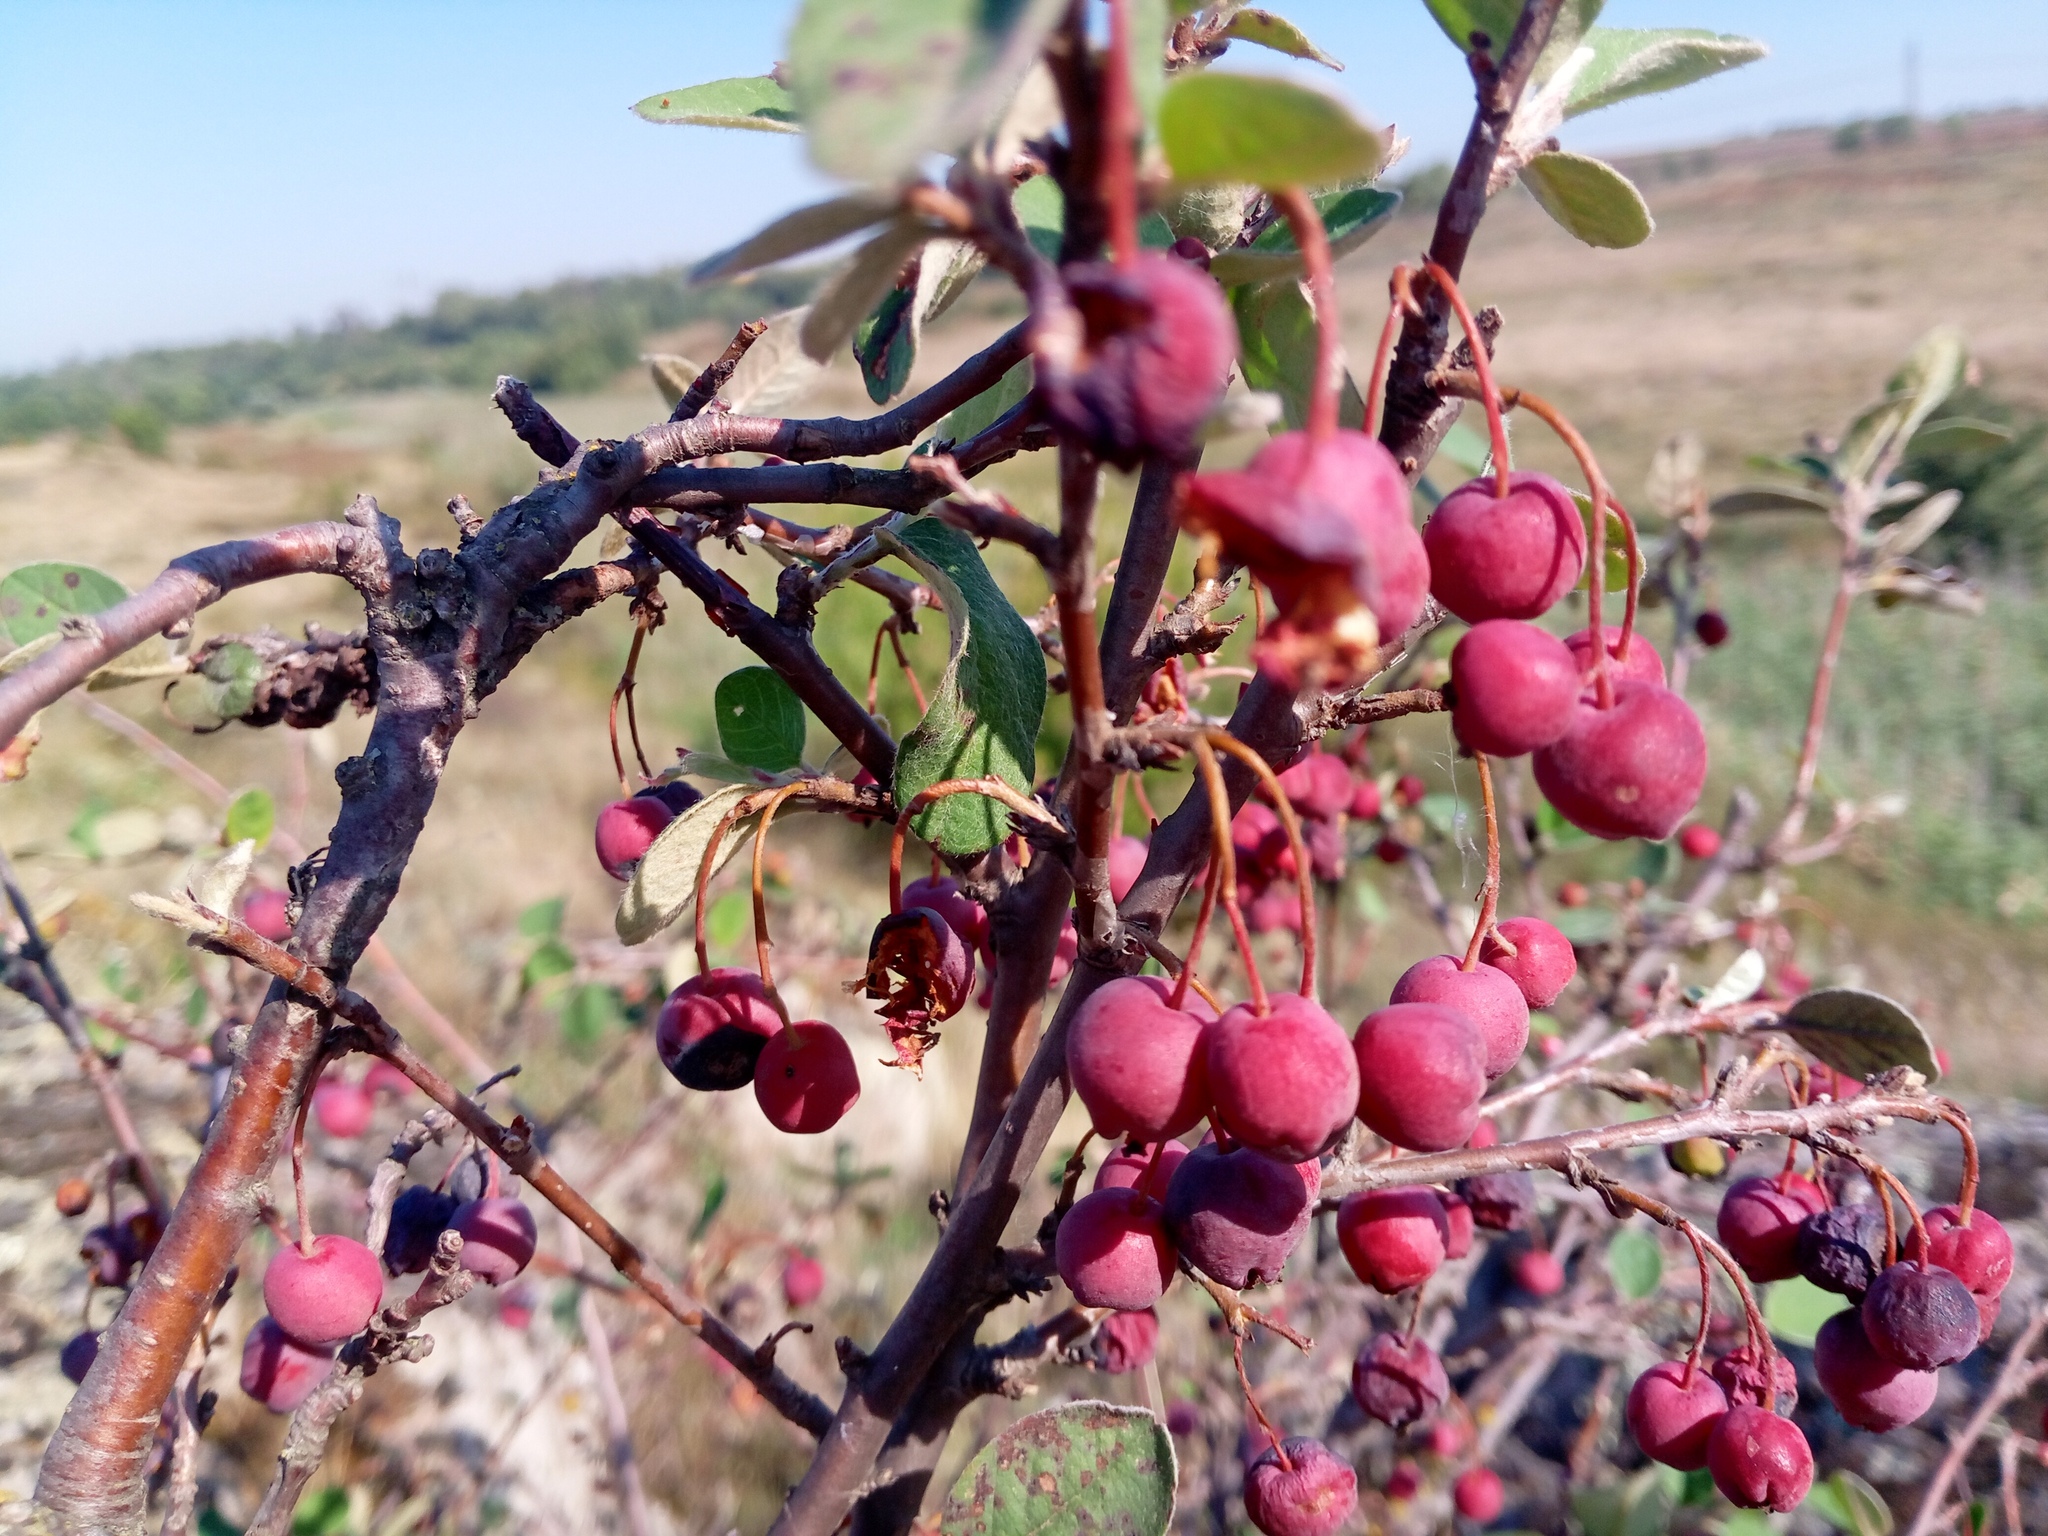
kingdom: Plantae
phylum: Tracheophyta
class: Magnoliopsida
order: Rosales
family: Rosaceae
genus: Cotoneaster
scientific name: Cotoneaster melanocarpus
